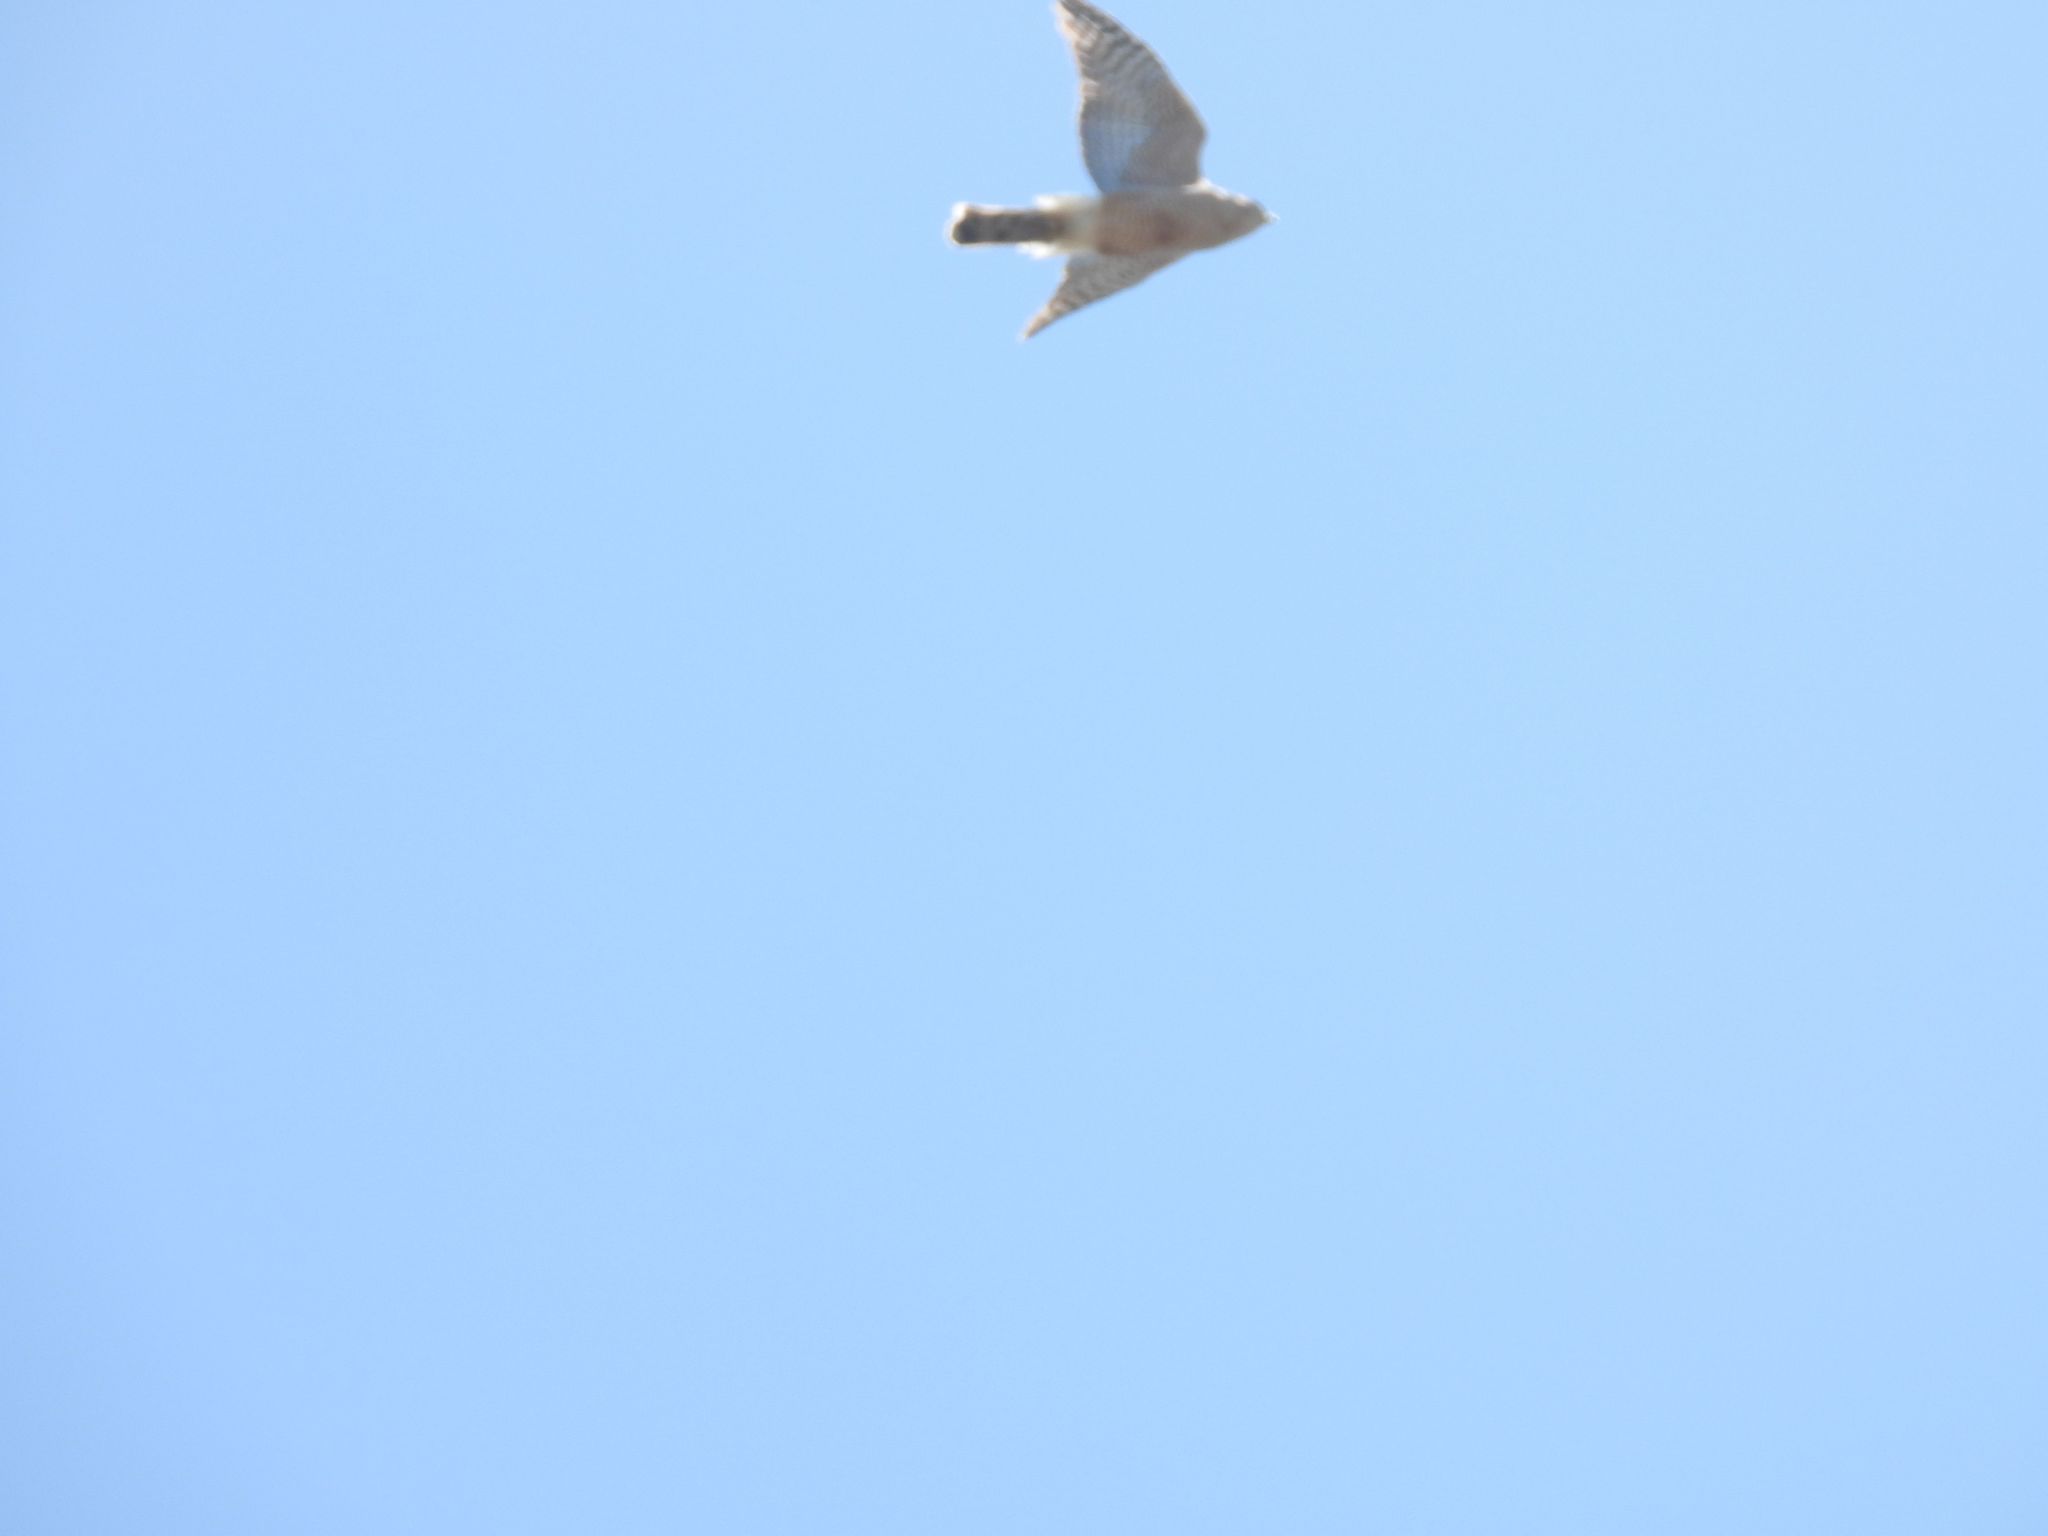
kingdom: Animalia
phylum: Chordata
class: Aves
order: Accipitriformes
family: Accipitridae
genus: Accipiter
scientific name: Accipiter cooperii
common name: Cooper's hawk
